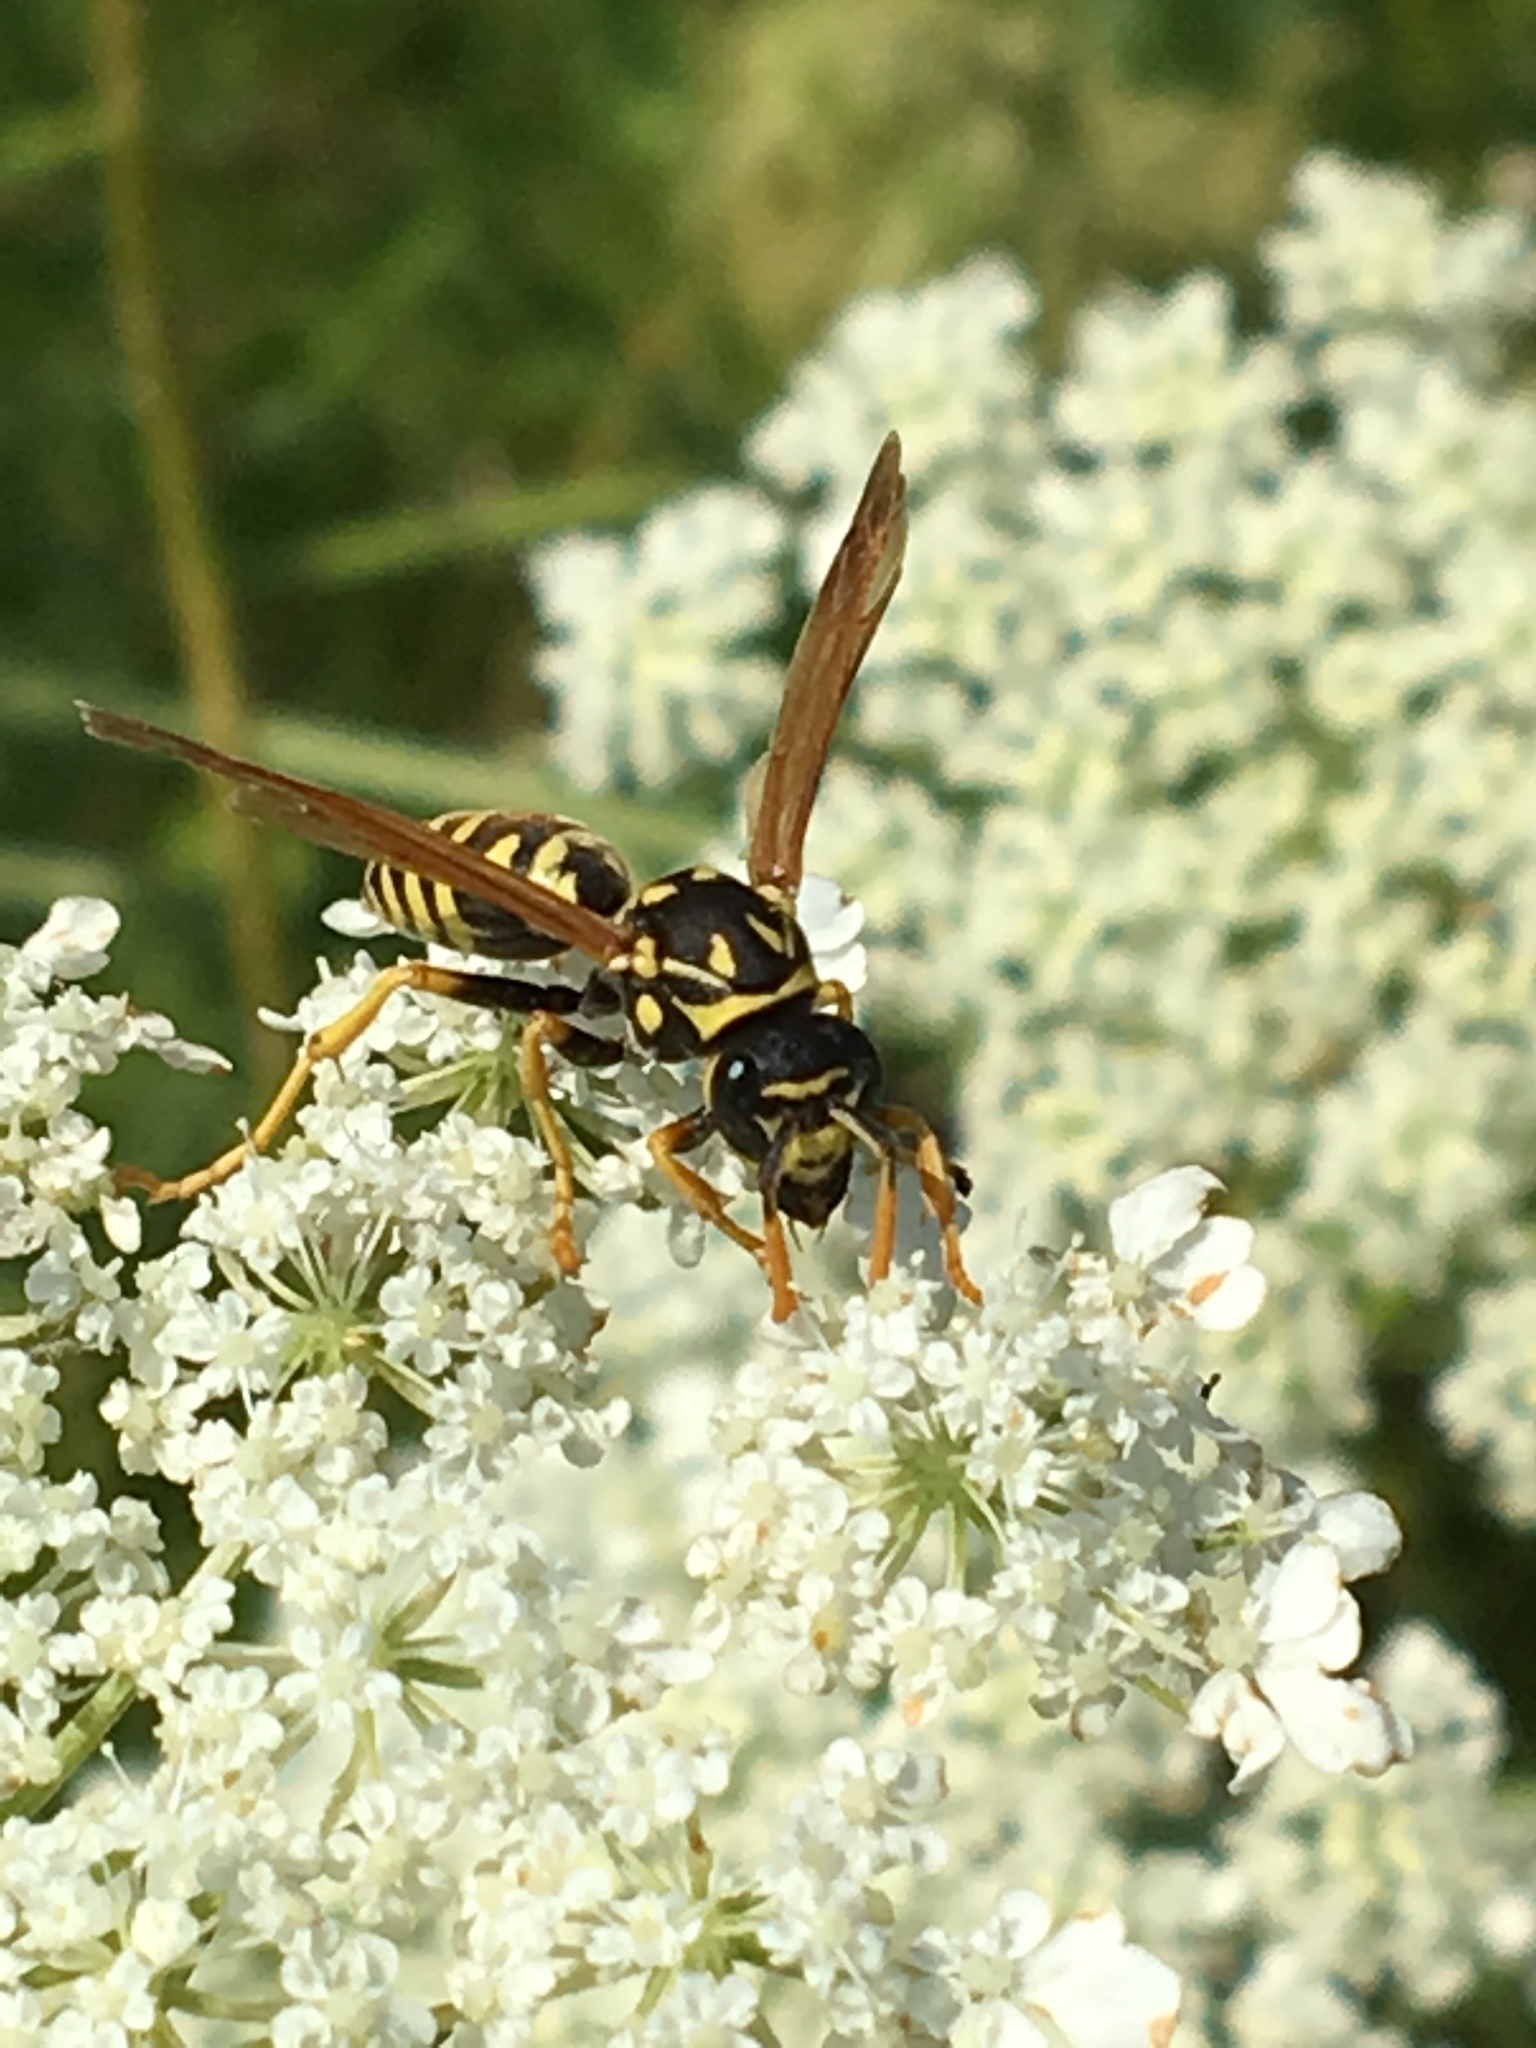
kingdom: Animalia
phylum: Arthropoda
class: Insecta
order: Hymenoptera
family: Eumenidae
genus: Polistes
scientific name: Polistes dominula
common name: Paper wasp
